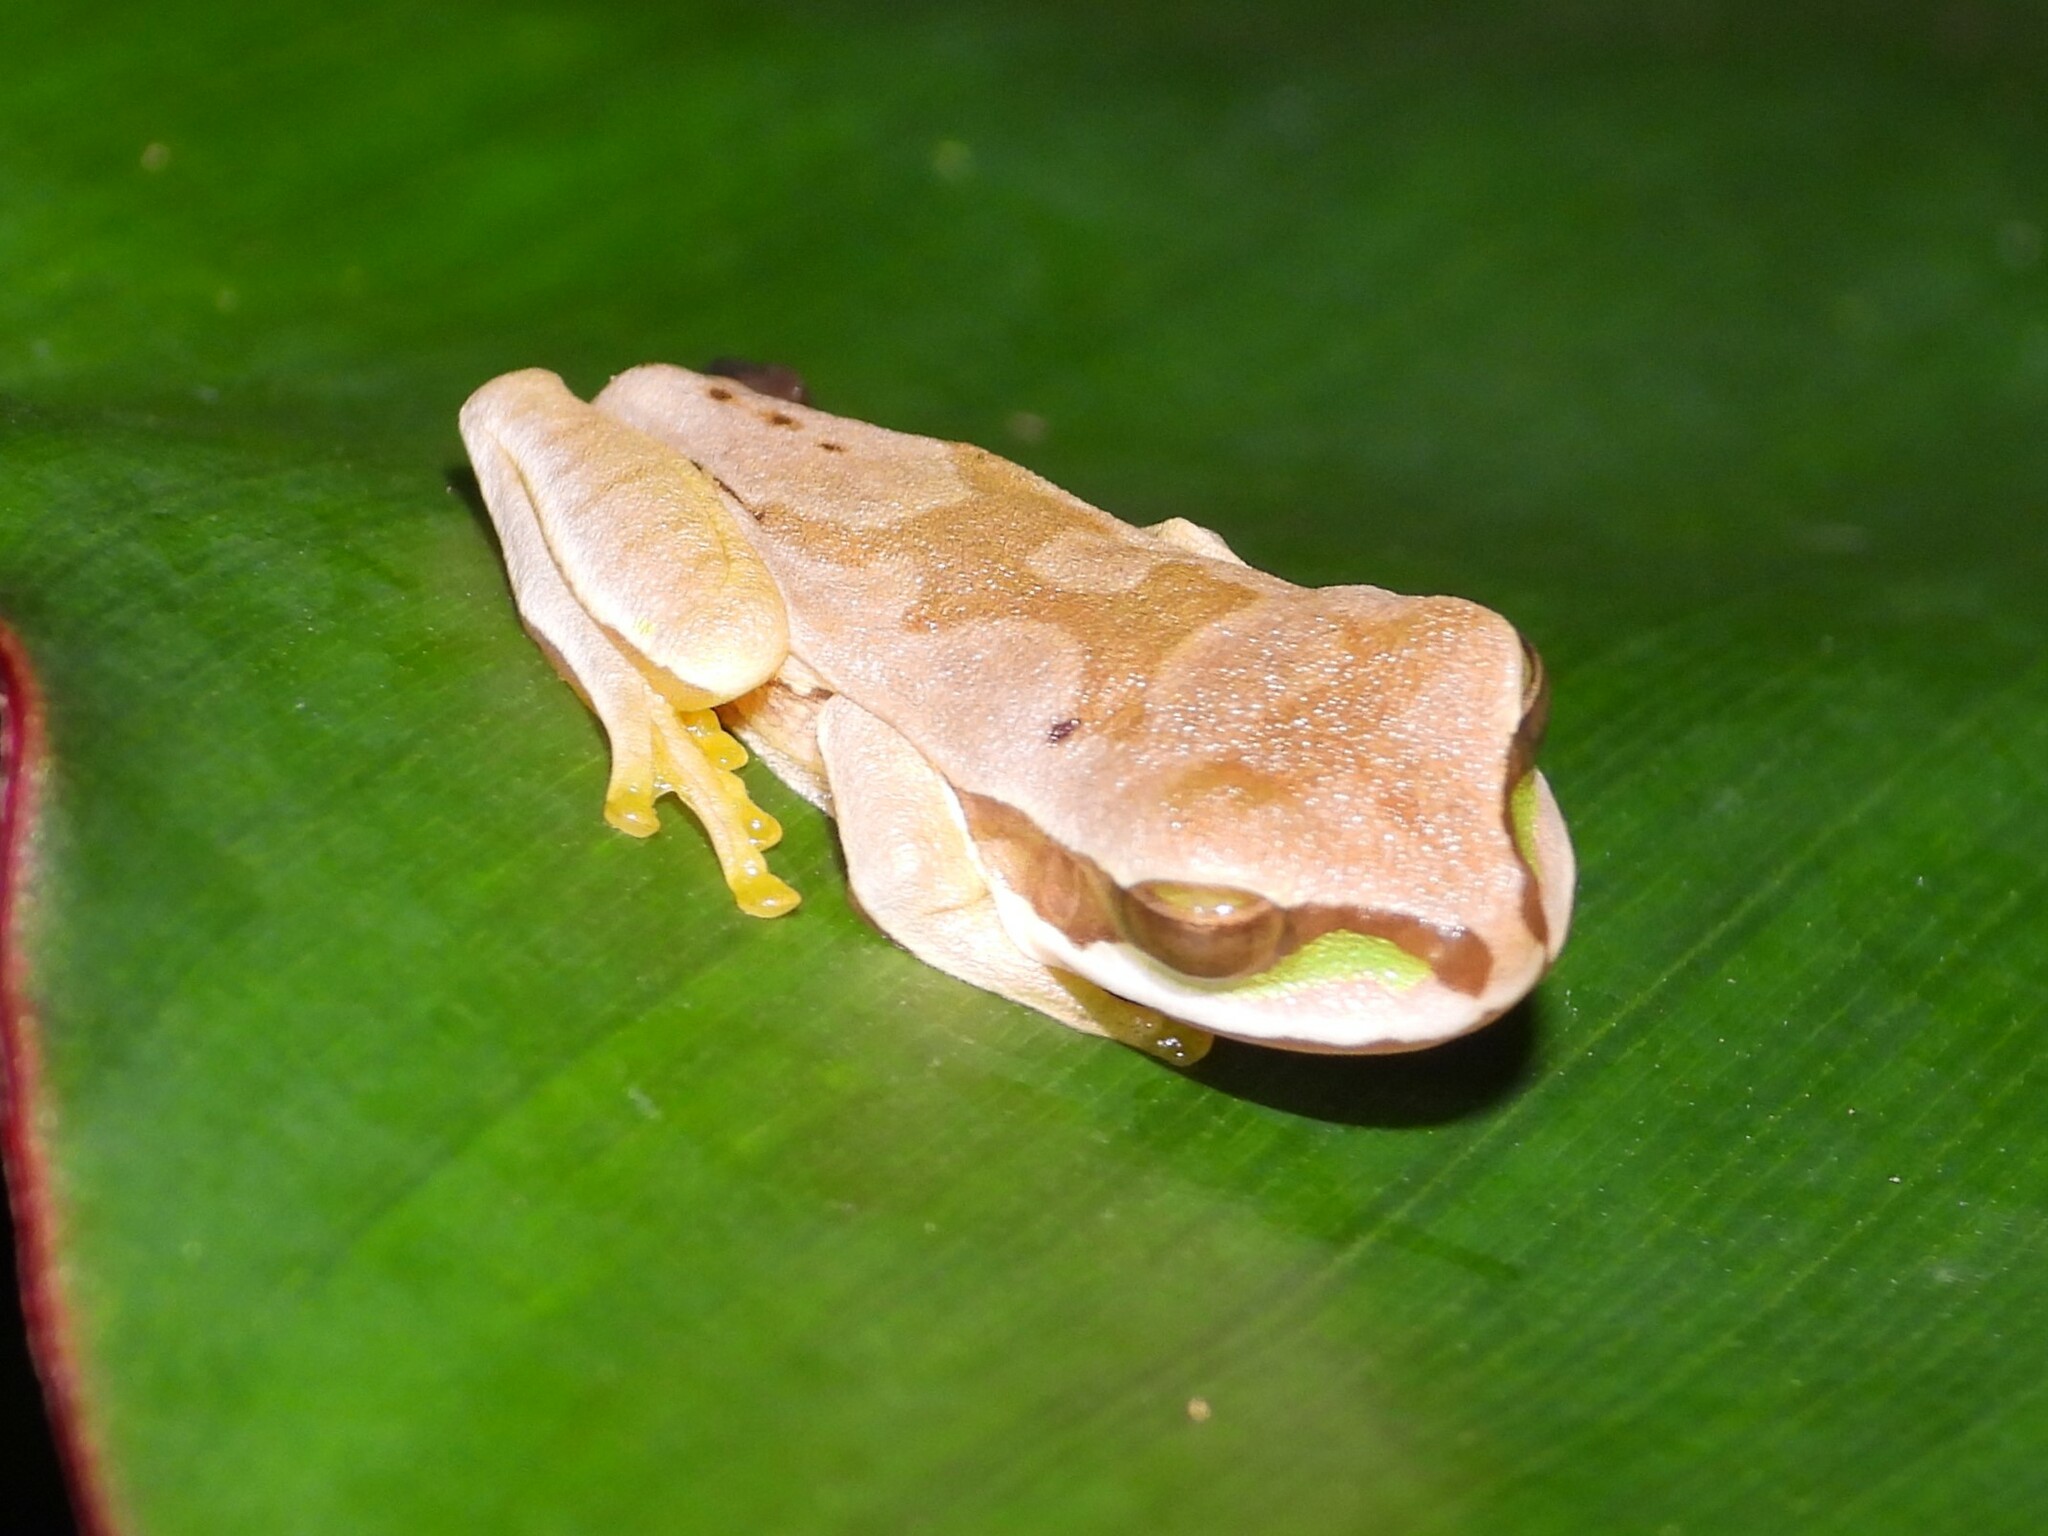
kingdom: Animalia
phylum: Chordata
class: Amphibia
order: Anura
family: Hylidae
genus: Smilisca
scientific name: Smilisca phaeota
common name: Central american smilisca
